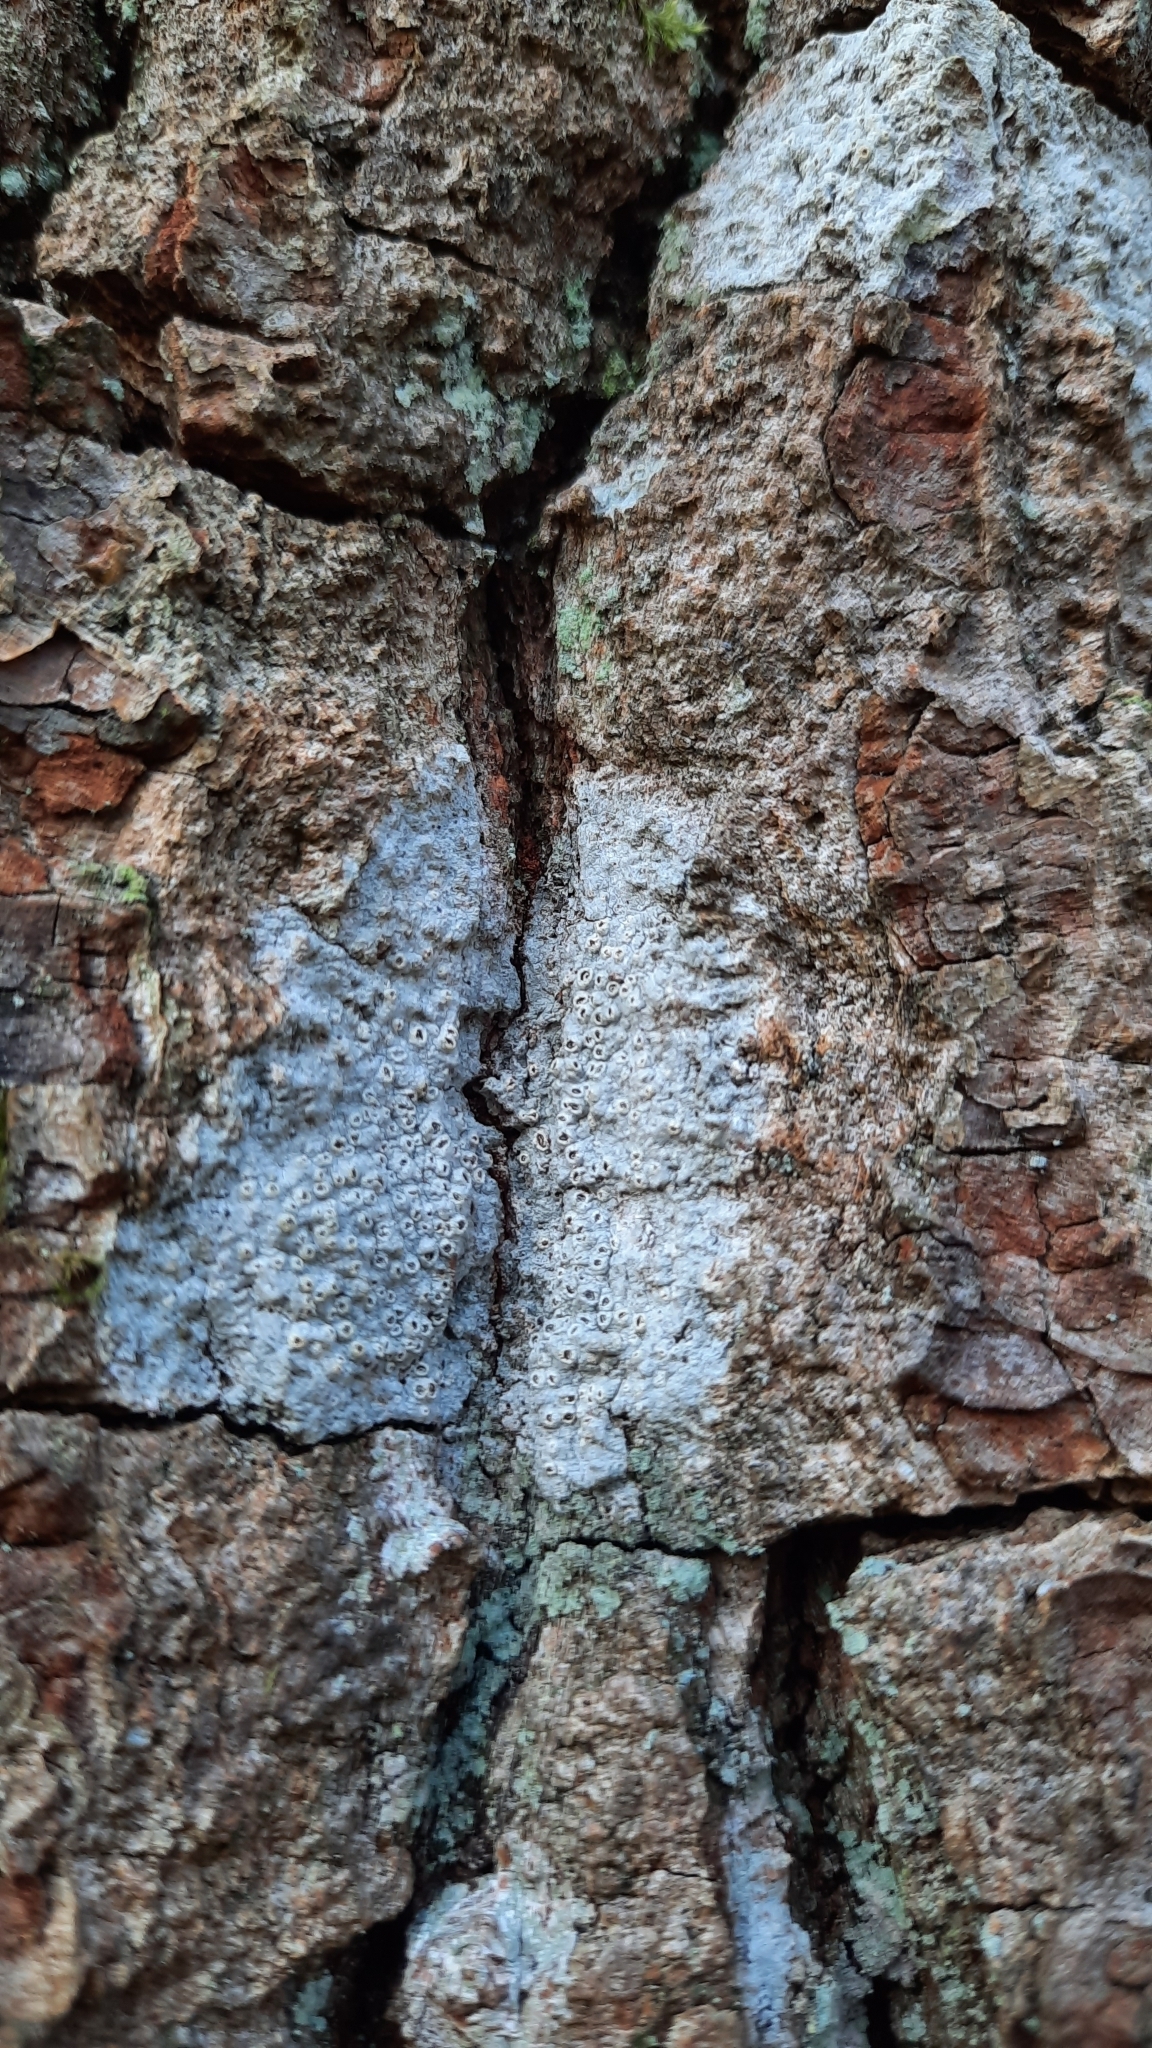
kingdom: Fungi
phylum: Ascomycota
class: Lecanoromycetes
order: Ostropales
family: Graphidaceae
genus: Thelotrema
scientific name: Thelotrema lepadinum
